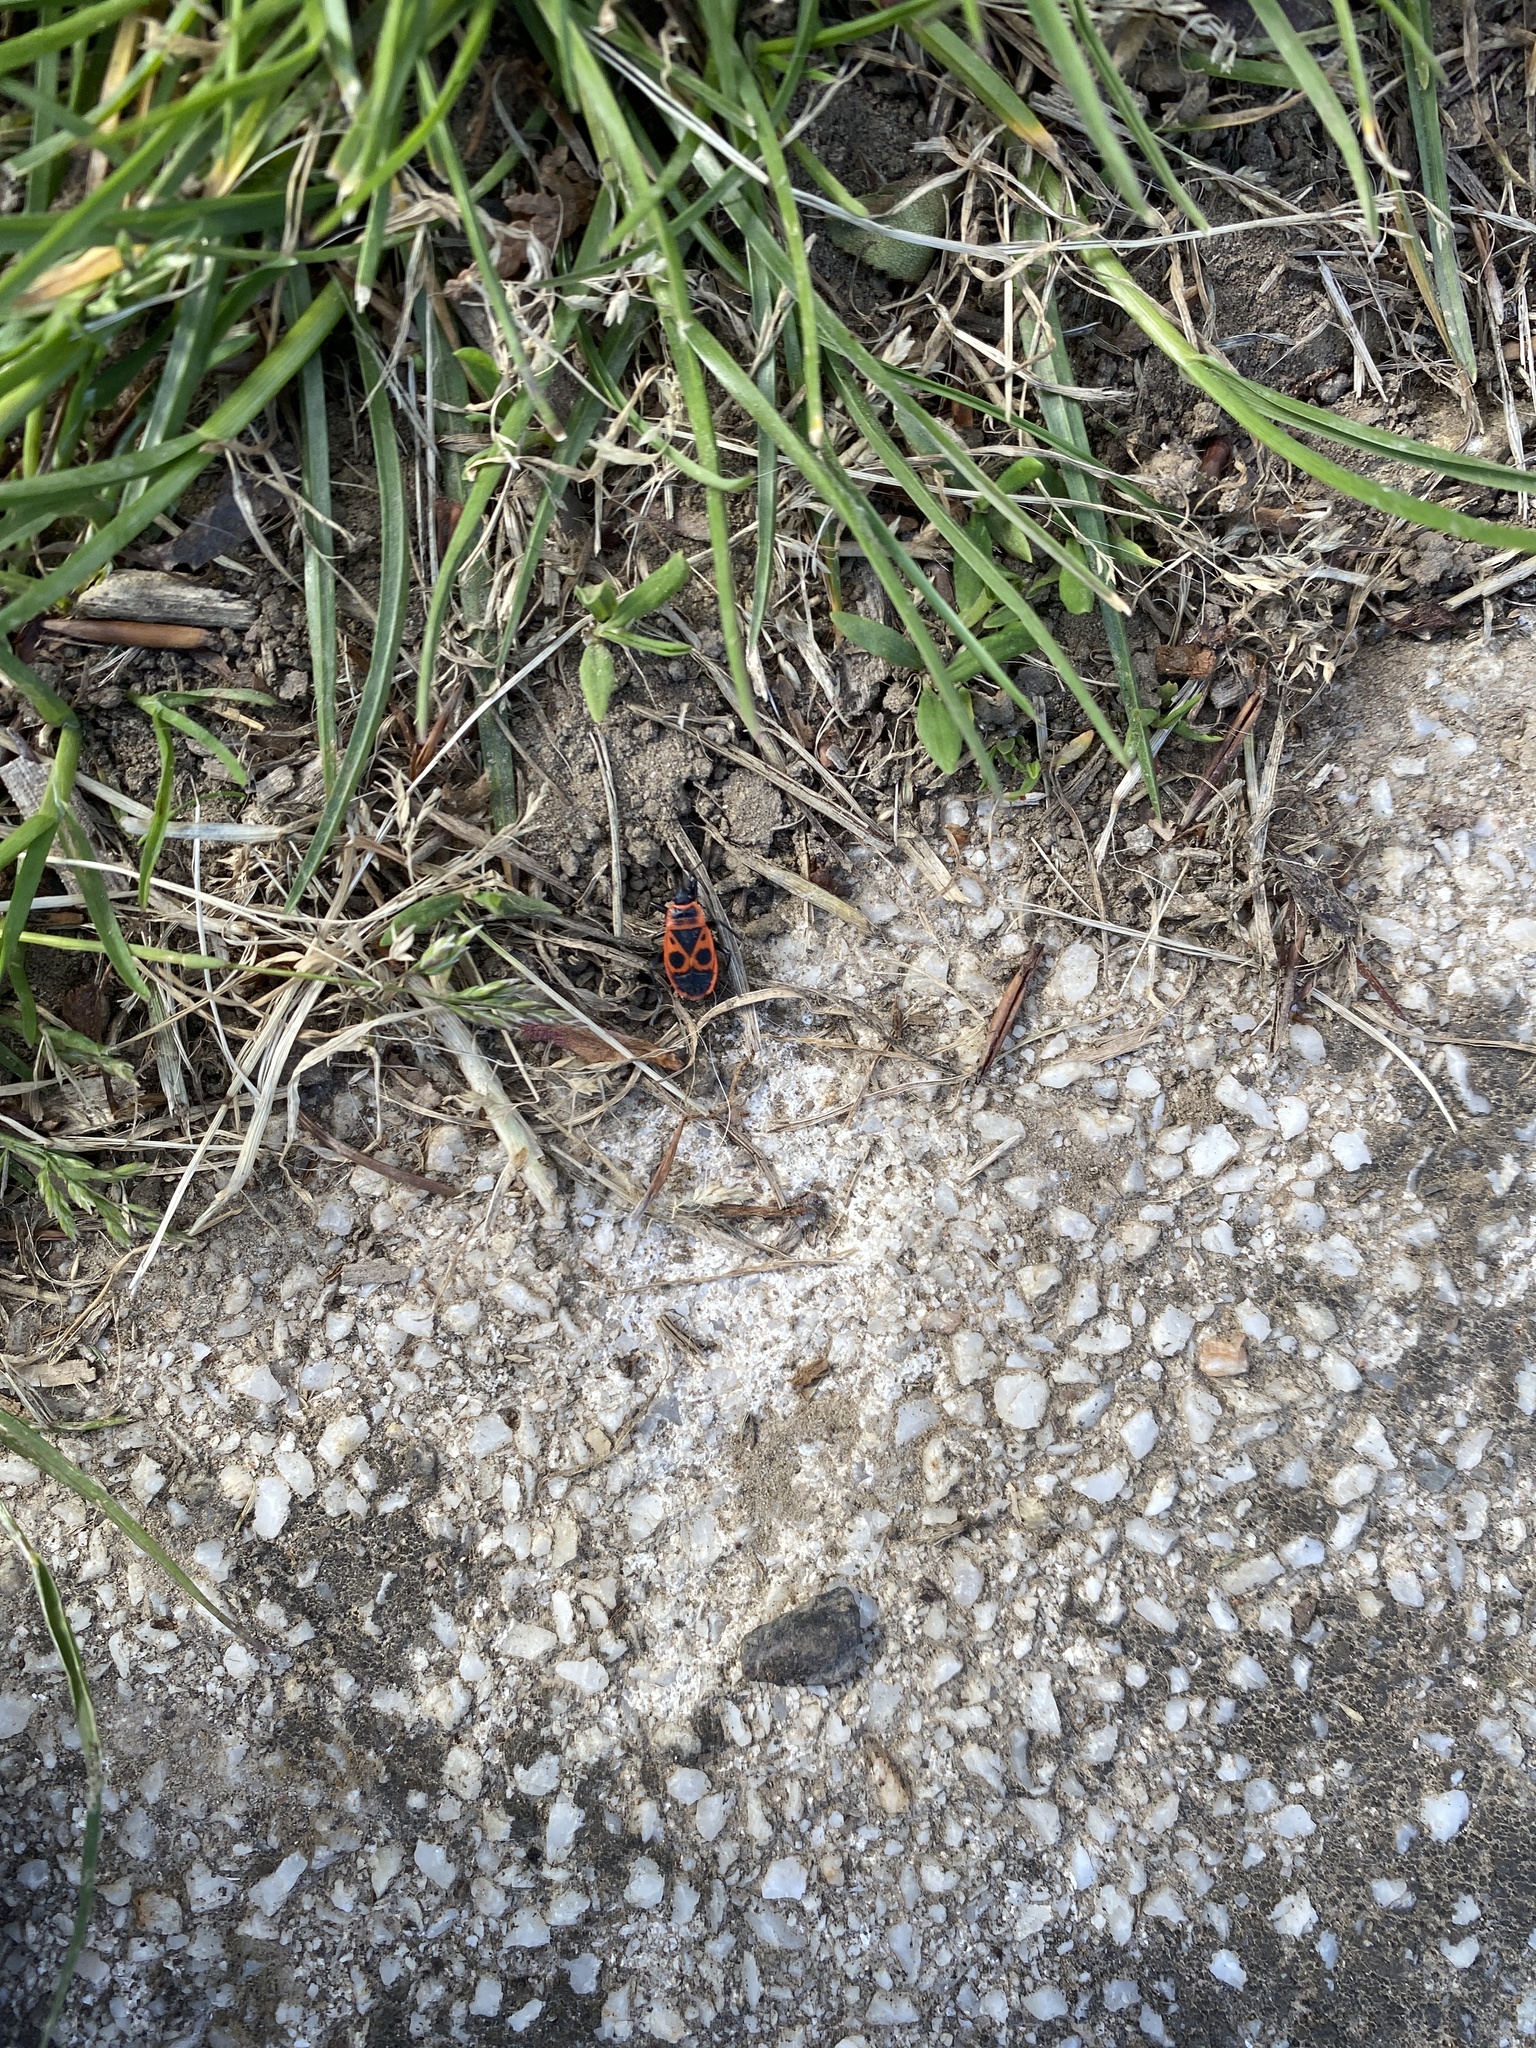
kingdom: Animalia
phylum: Arthropoda
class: Insecta
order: Hemiptera
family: Pyrrhocoridae
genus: Pyrrhocoris
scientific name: Pyrrhocoris apterus
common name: Firebug
